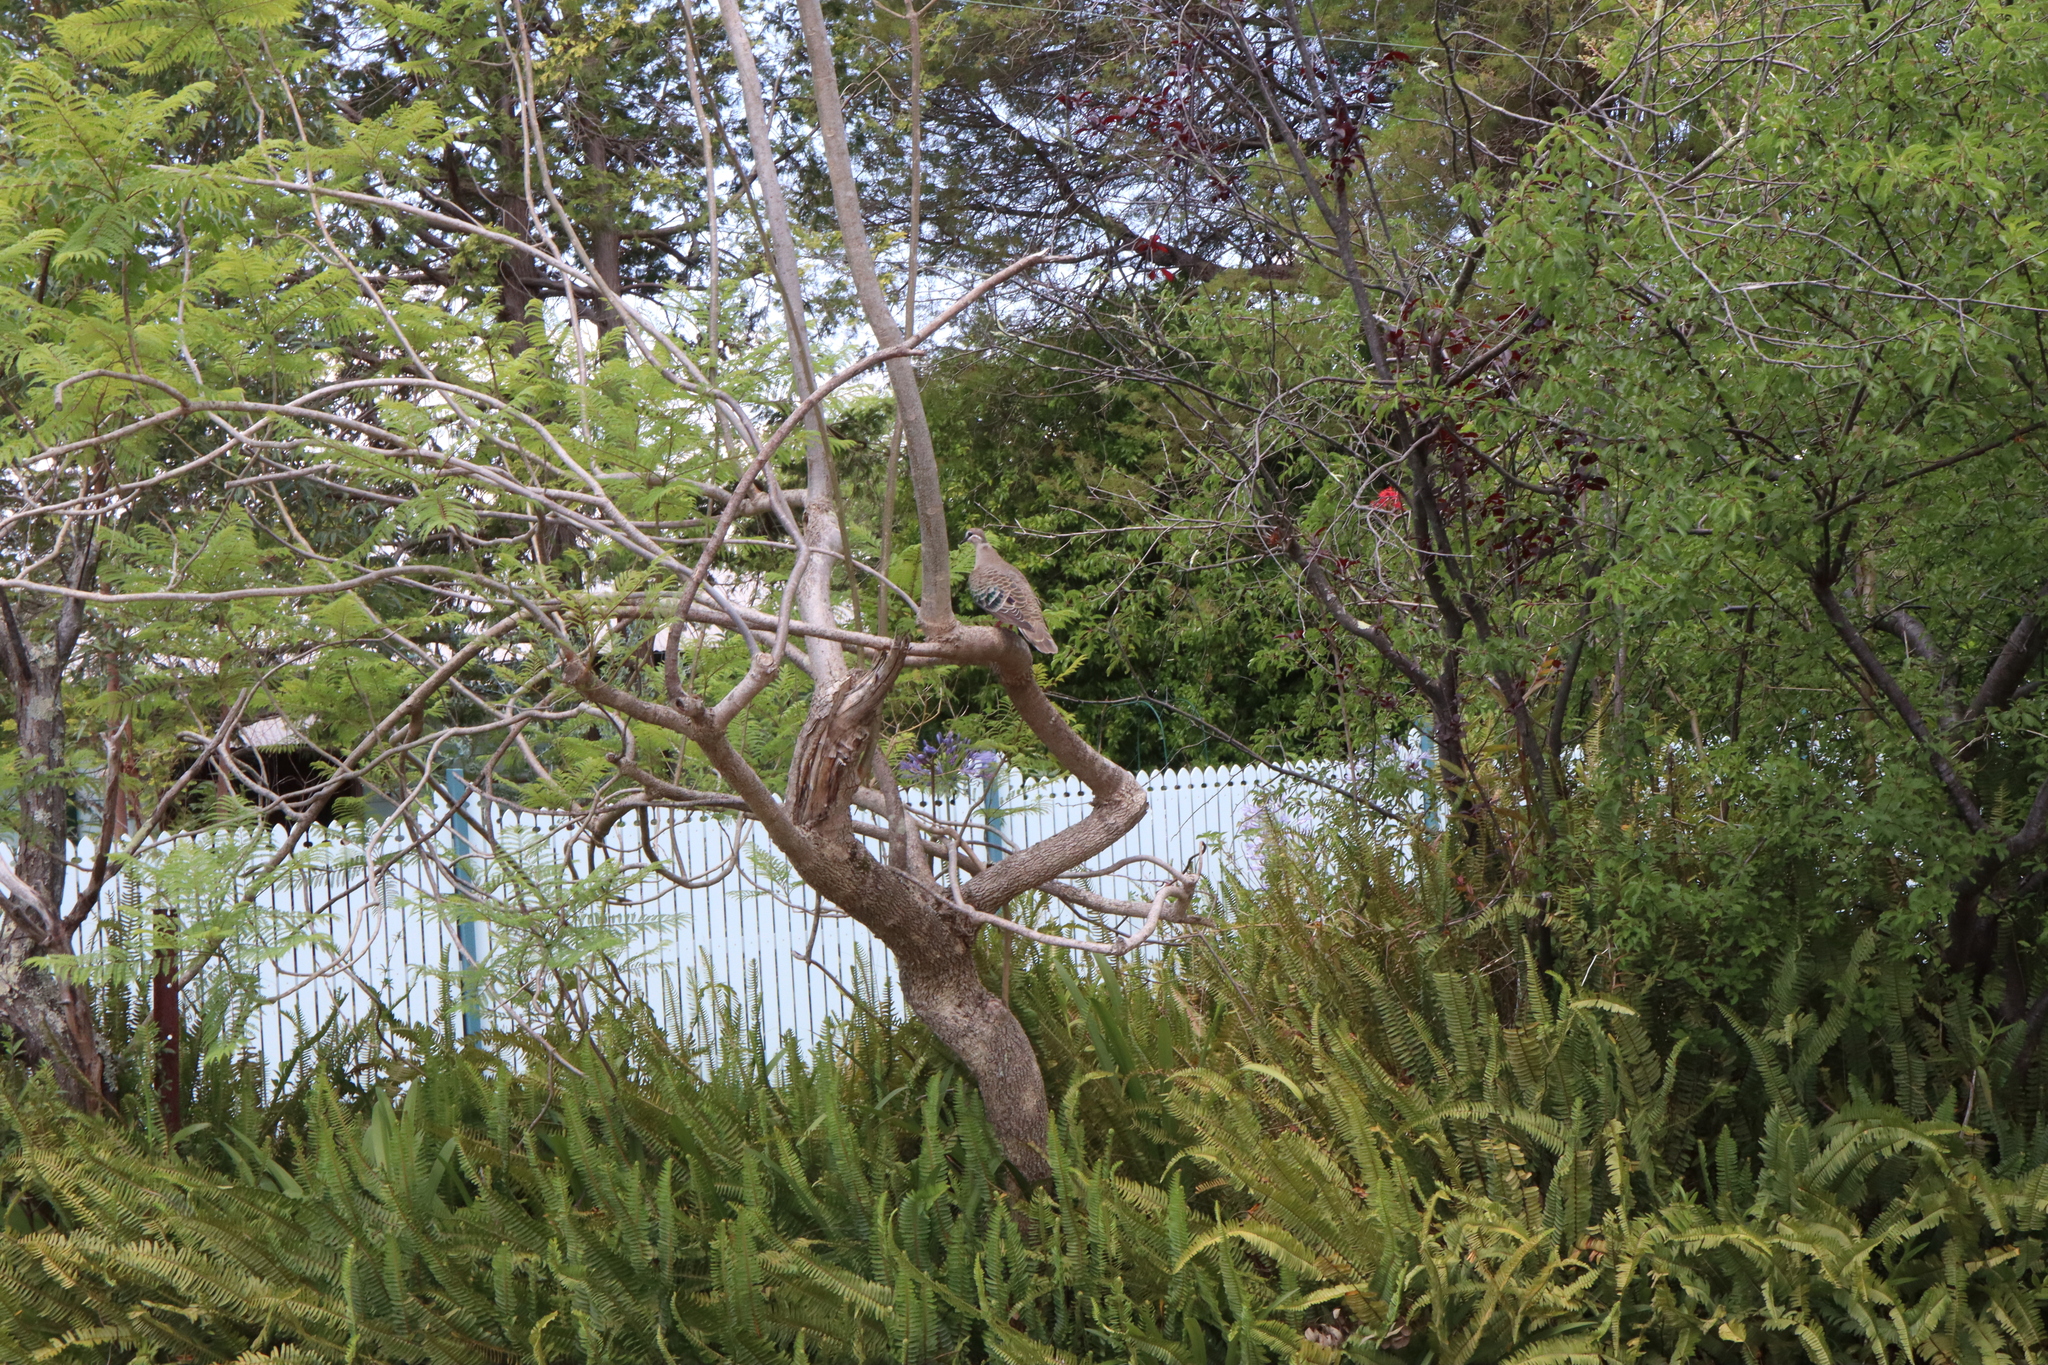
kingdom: Animalia
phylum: Chordata
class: Aves
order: Columbiformes
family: Columbidae
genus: Phaps
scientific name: Phaps chalcoptera
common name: Common bronzewing
